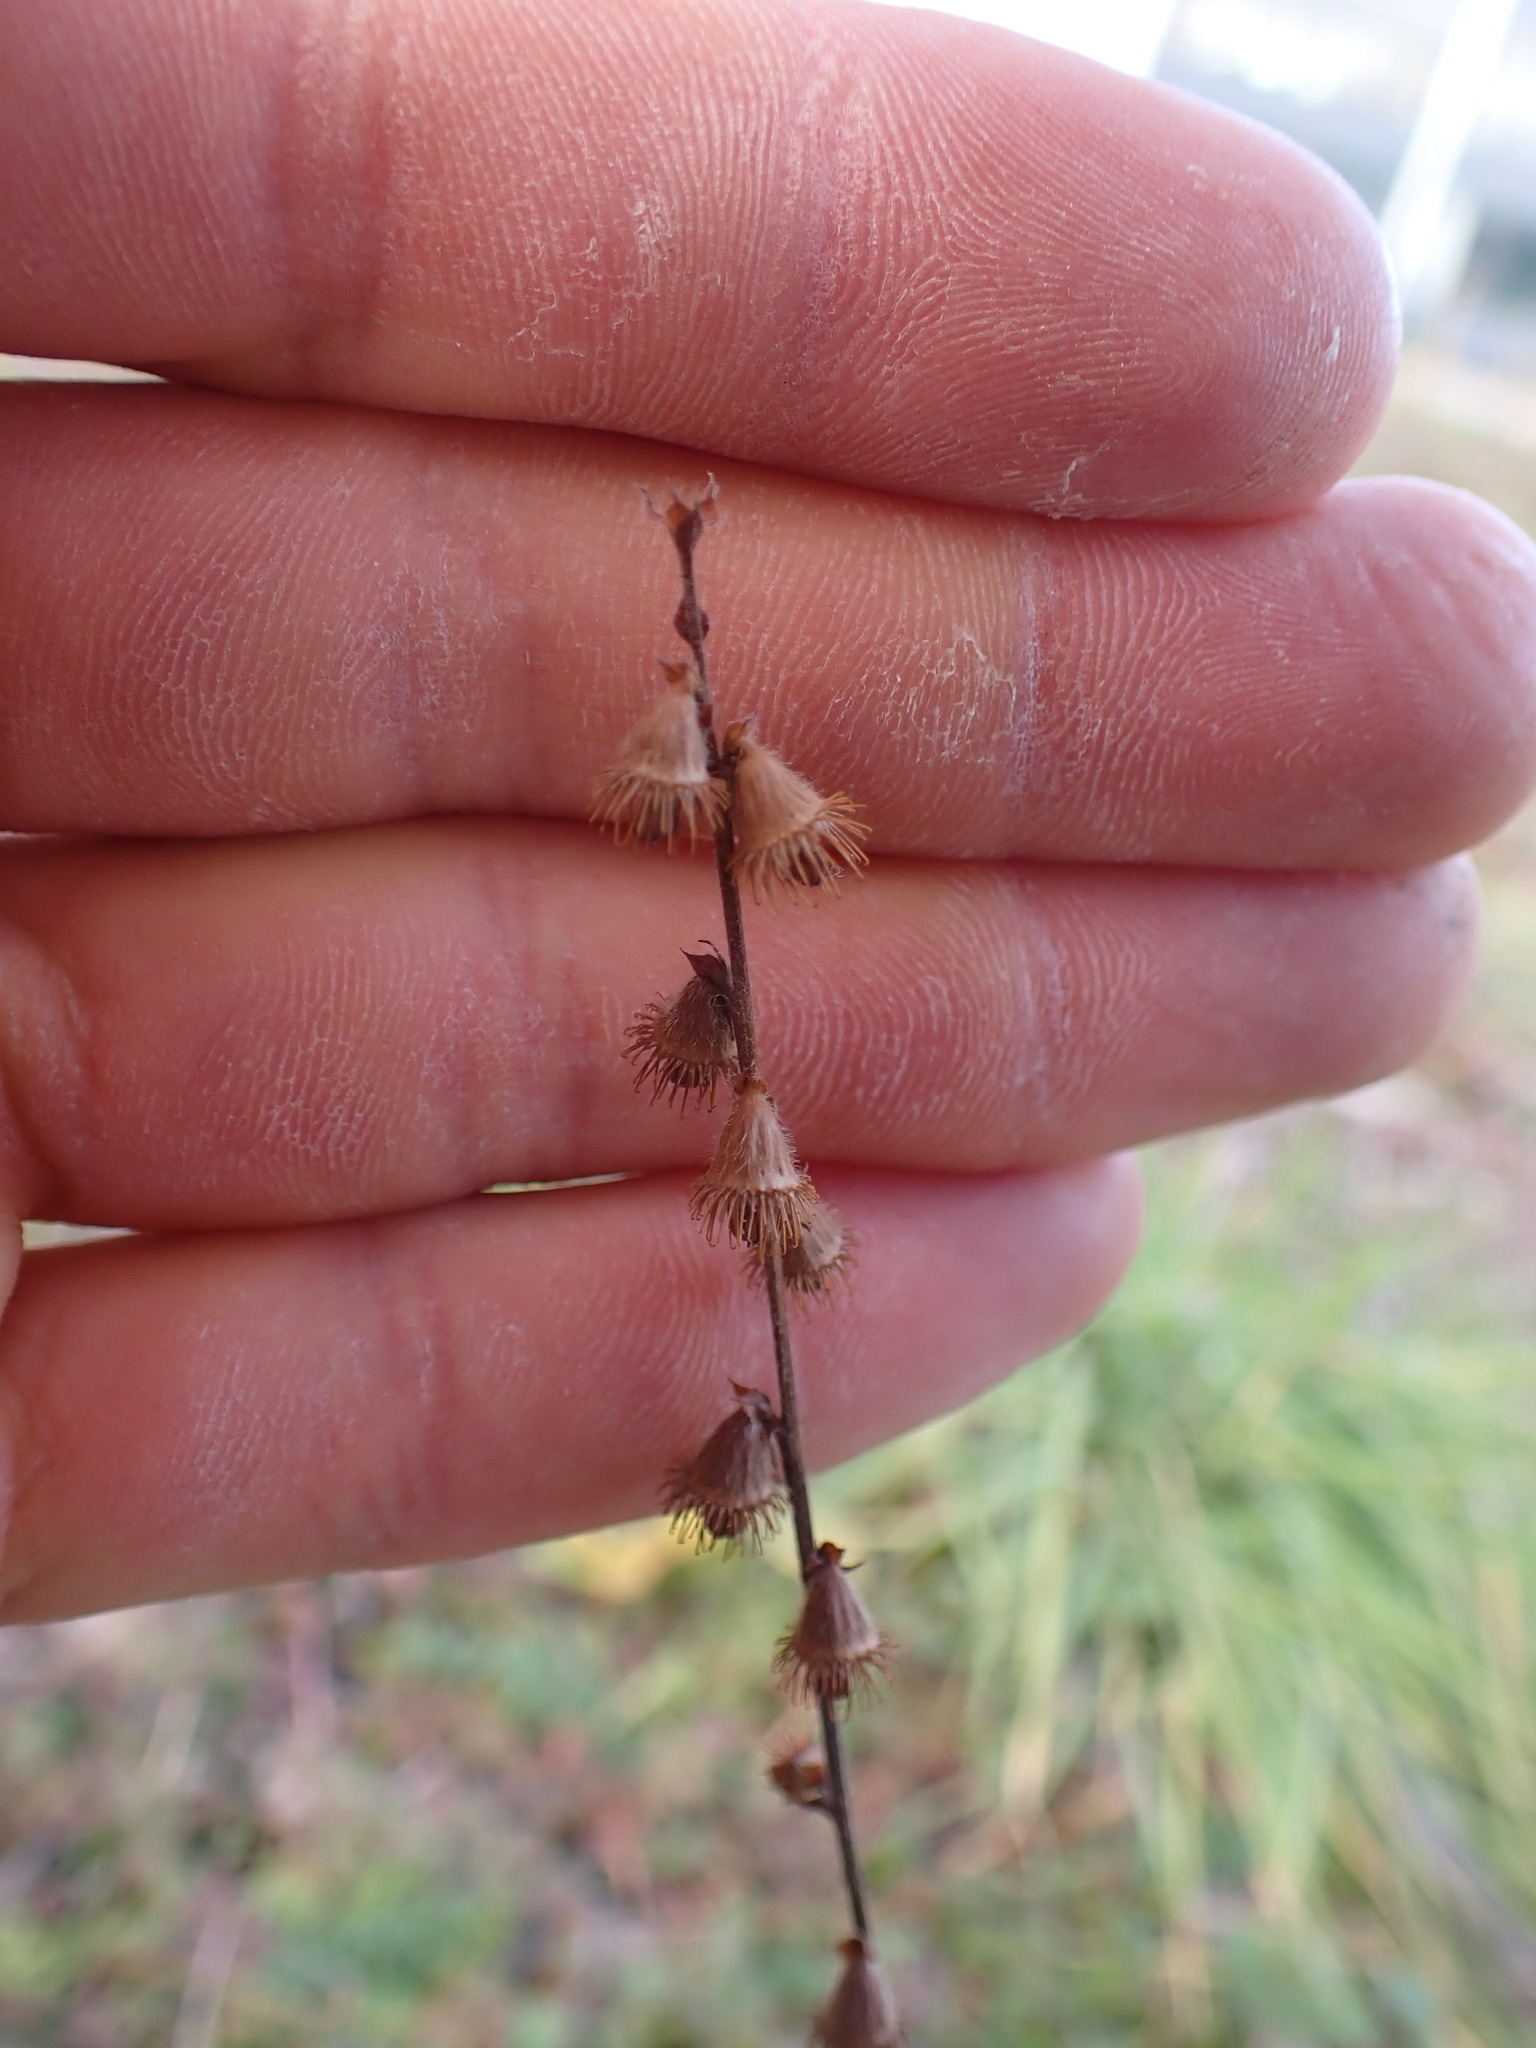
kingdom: Plantae
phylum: Tracheophyta
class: Magnoliopsida
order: Rosales
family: Rosaceae
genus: Agrimonia
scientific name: Agrimonia eupatoria
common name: Agrimony
